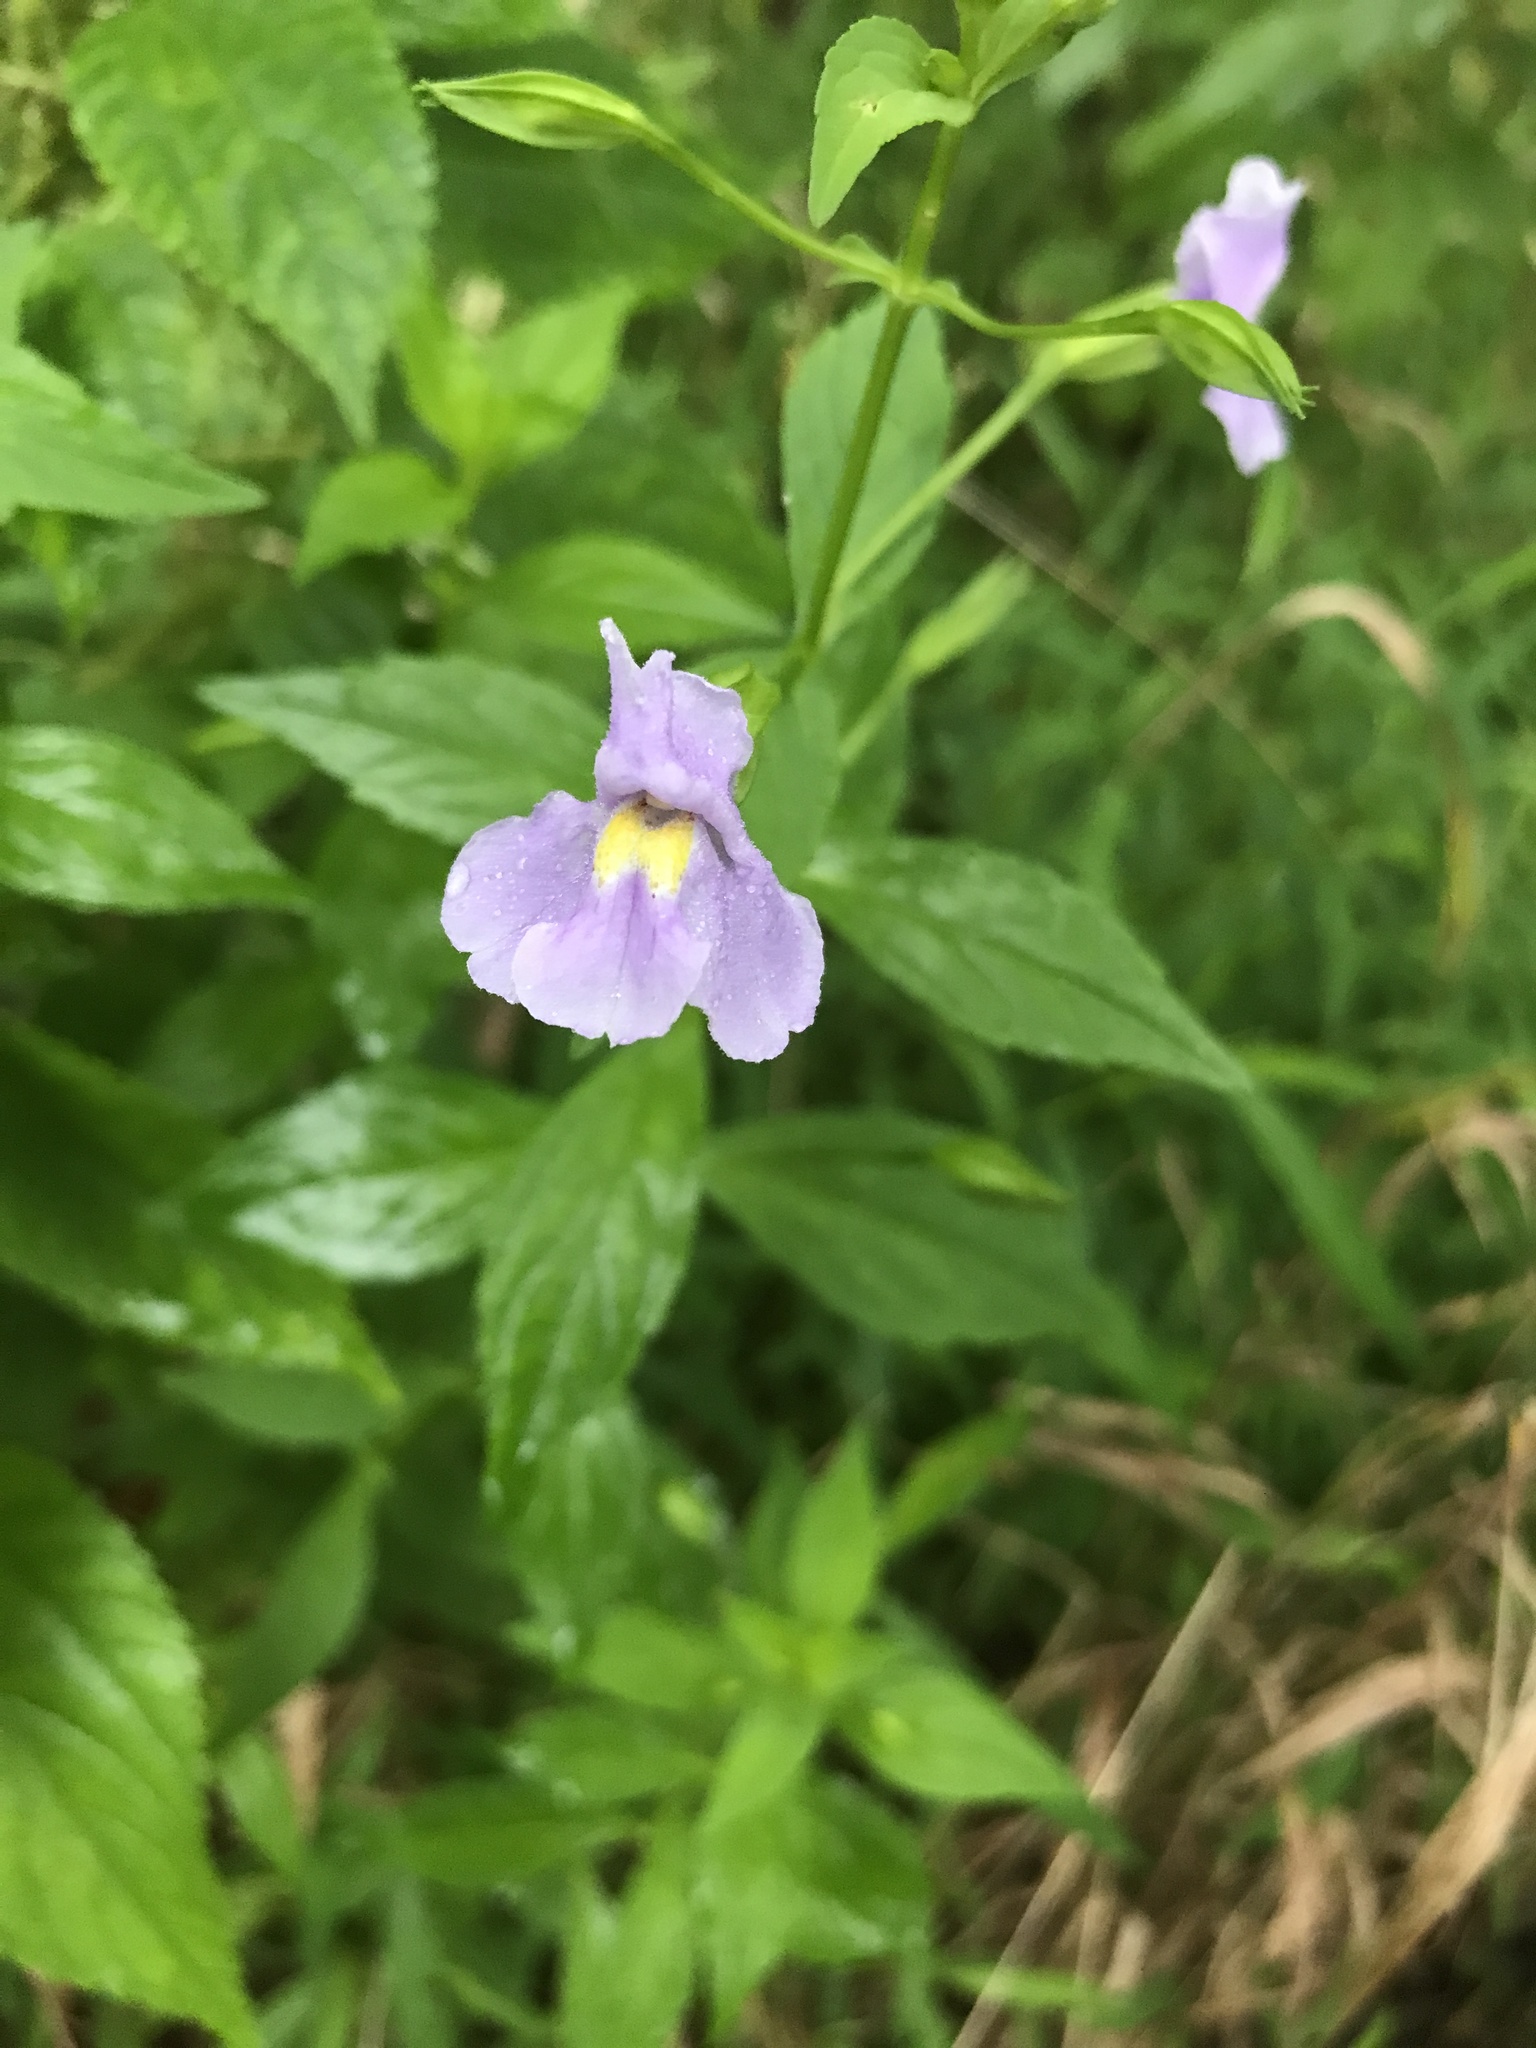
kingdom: Plantae
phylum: Tracheophyta
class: Magnoliopsida
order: Lamiales
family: Phrymaceae
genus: Mimulus
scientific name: Mimulus ringens
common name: Allegheny monkeyflower
